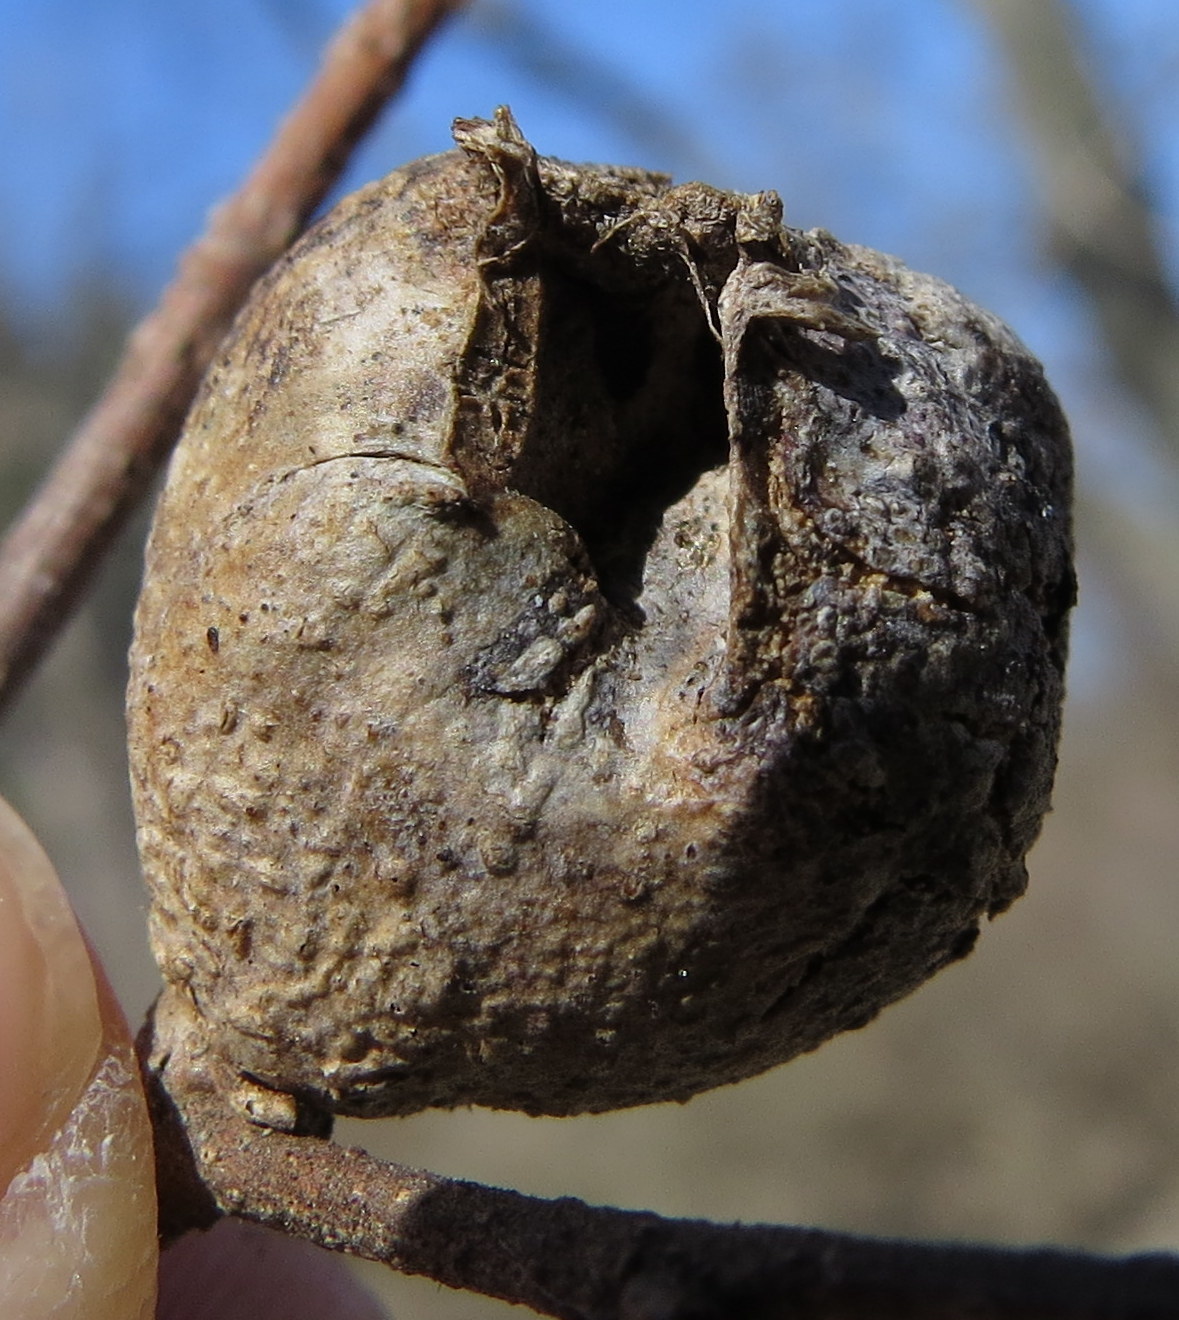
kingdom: Animalia
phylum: Arthropoda
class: Insecta
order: Hemiptera
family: Aphalaridae
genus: Pachypsylla
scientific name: Pachypsylla venusta
